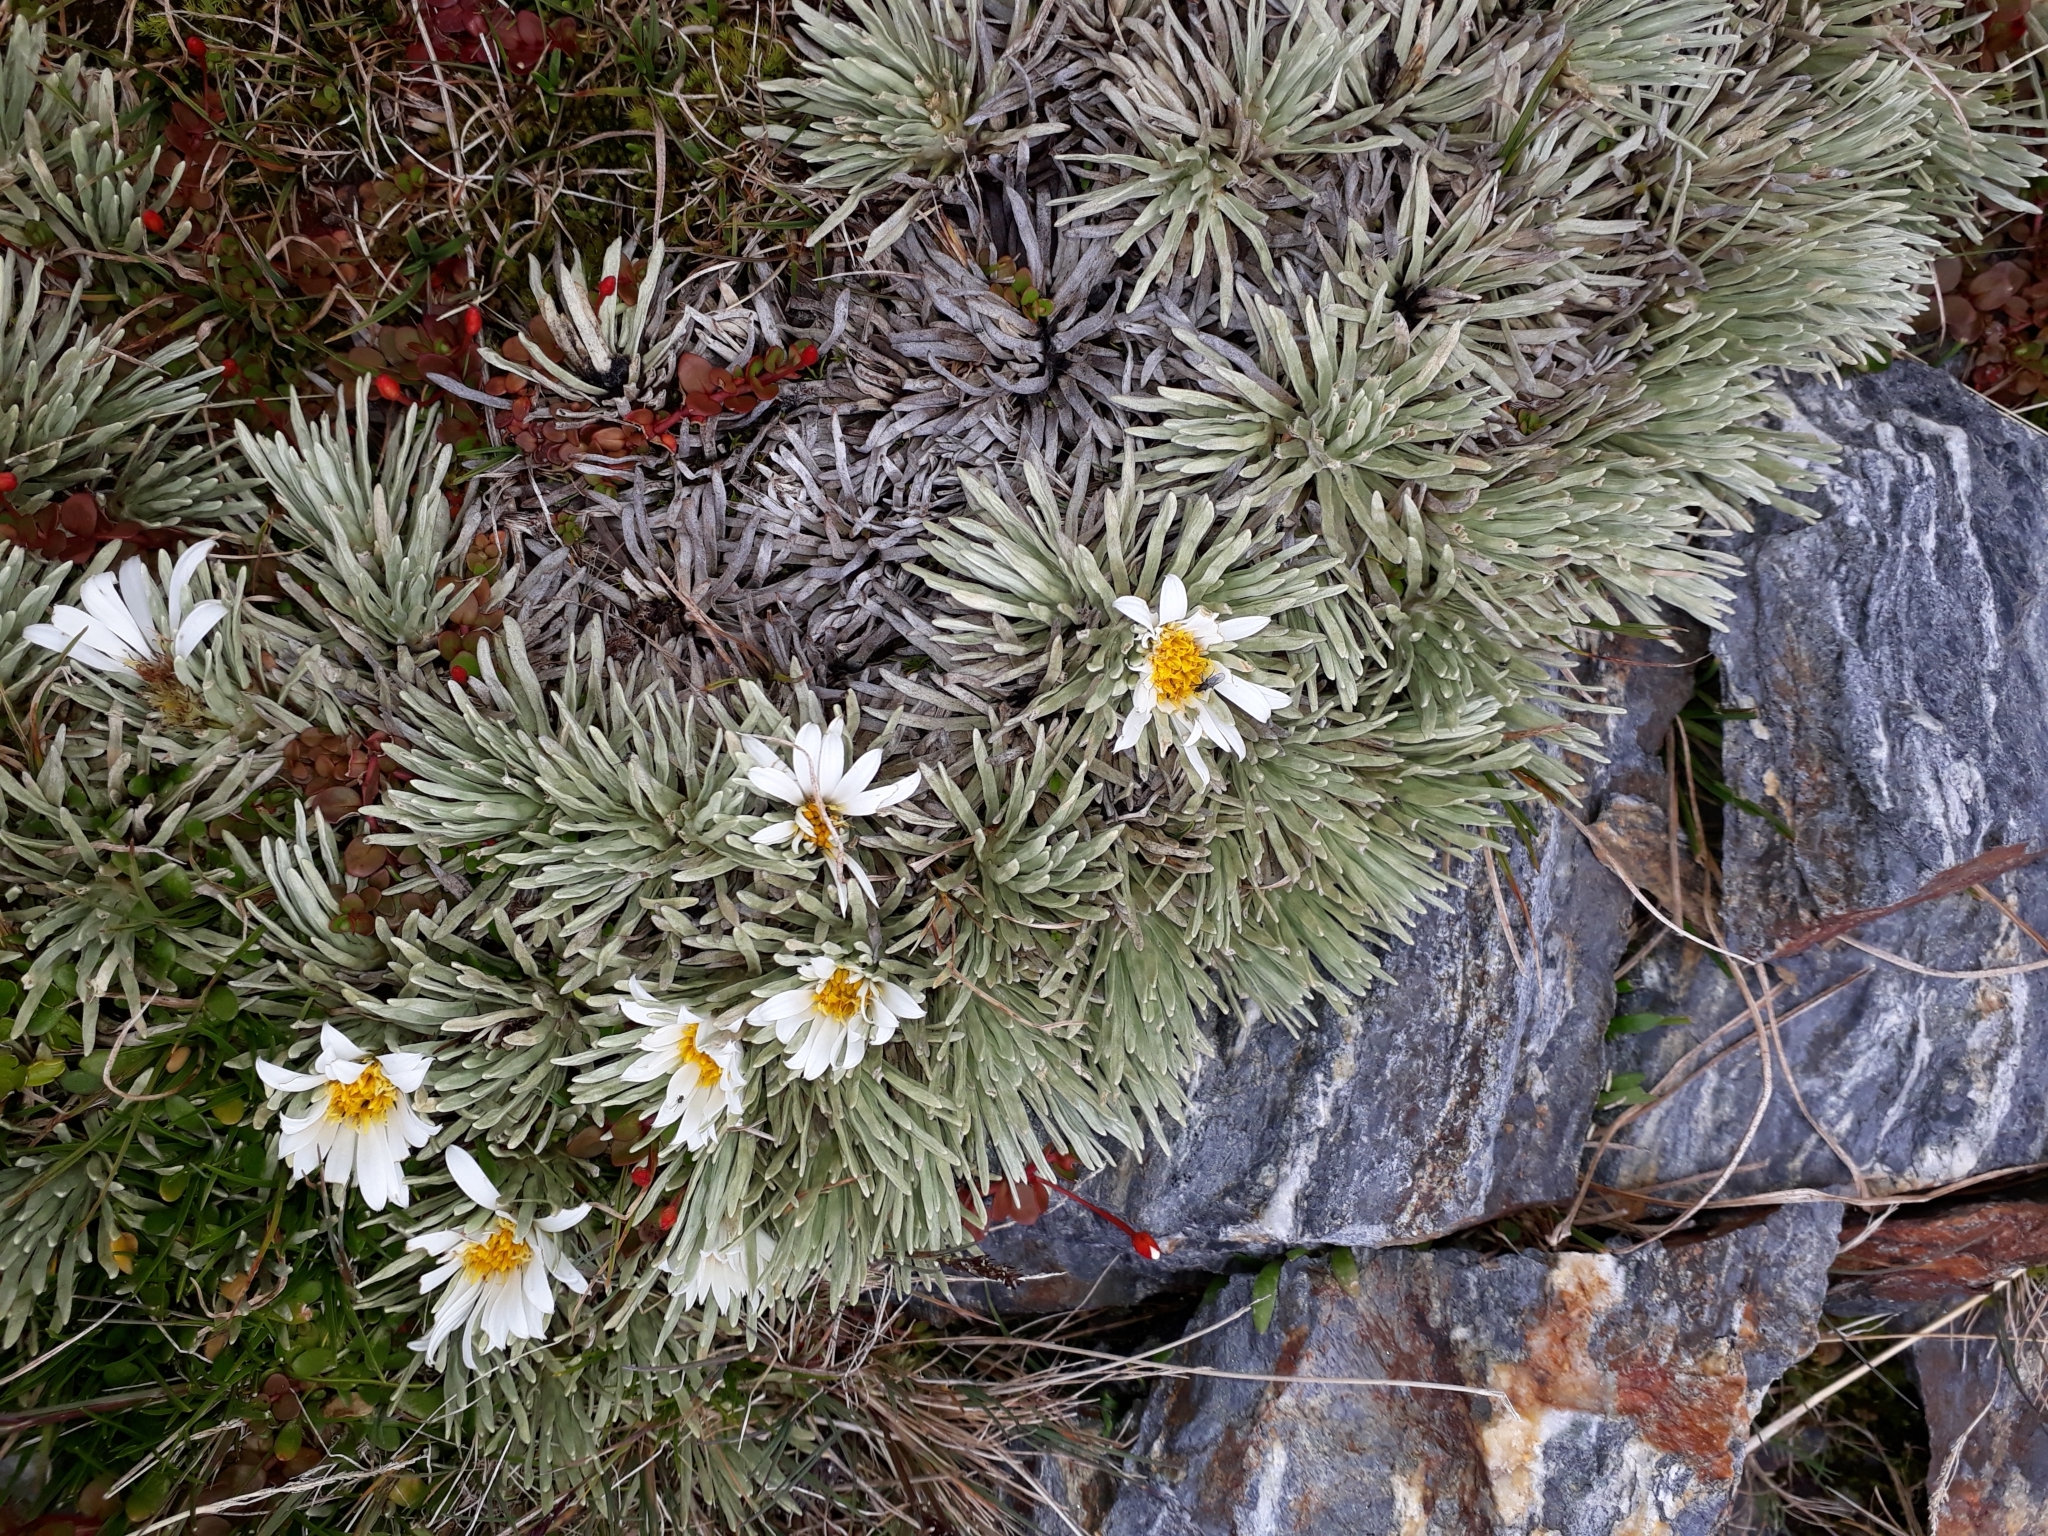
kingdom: Plantae
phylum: Tracheophyta
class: Magnoliopsida
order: Asterales
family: Asteraceae
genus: Celmisia
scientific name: Celmisia sessiliflora
